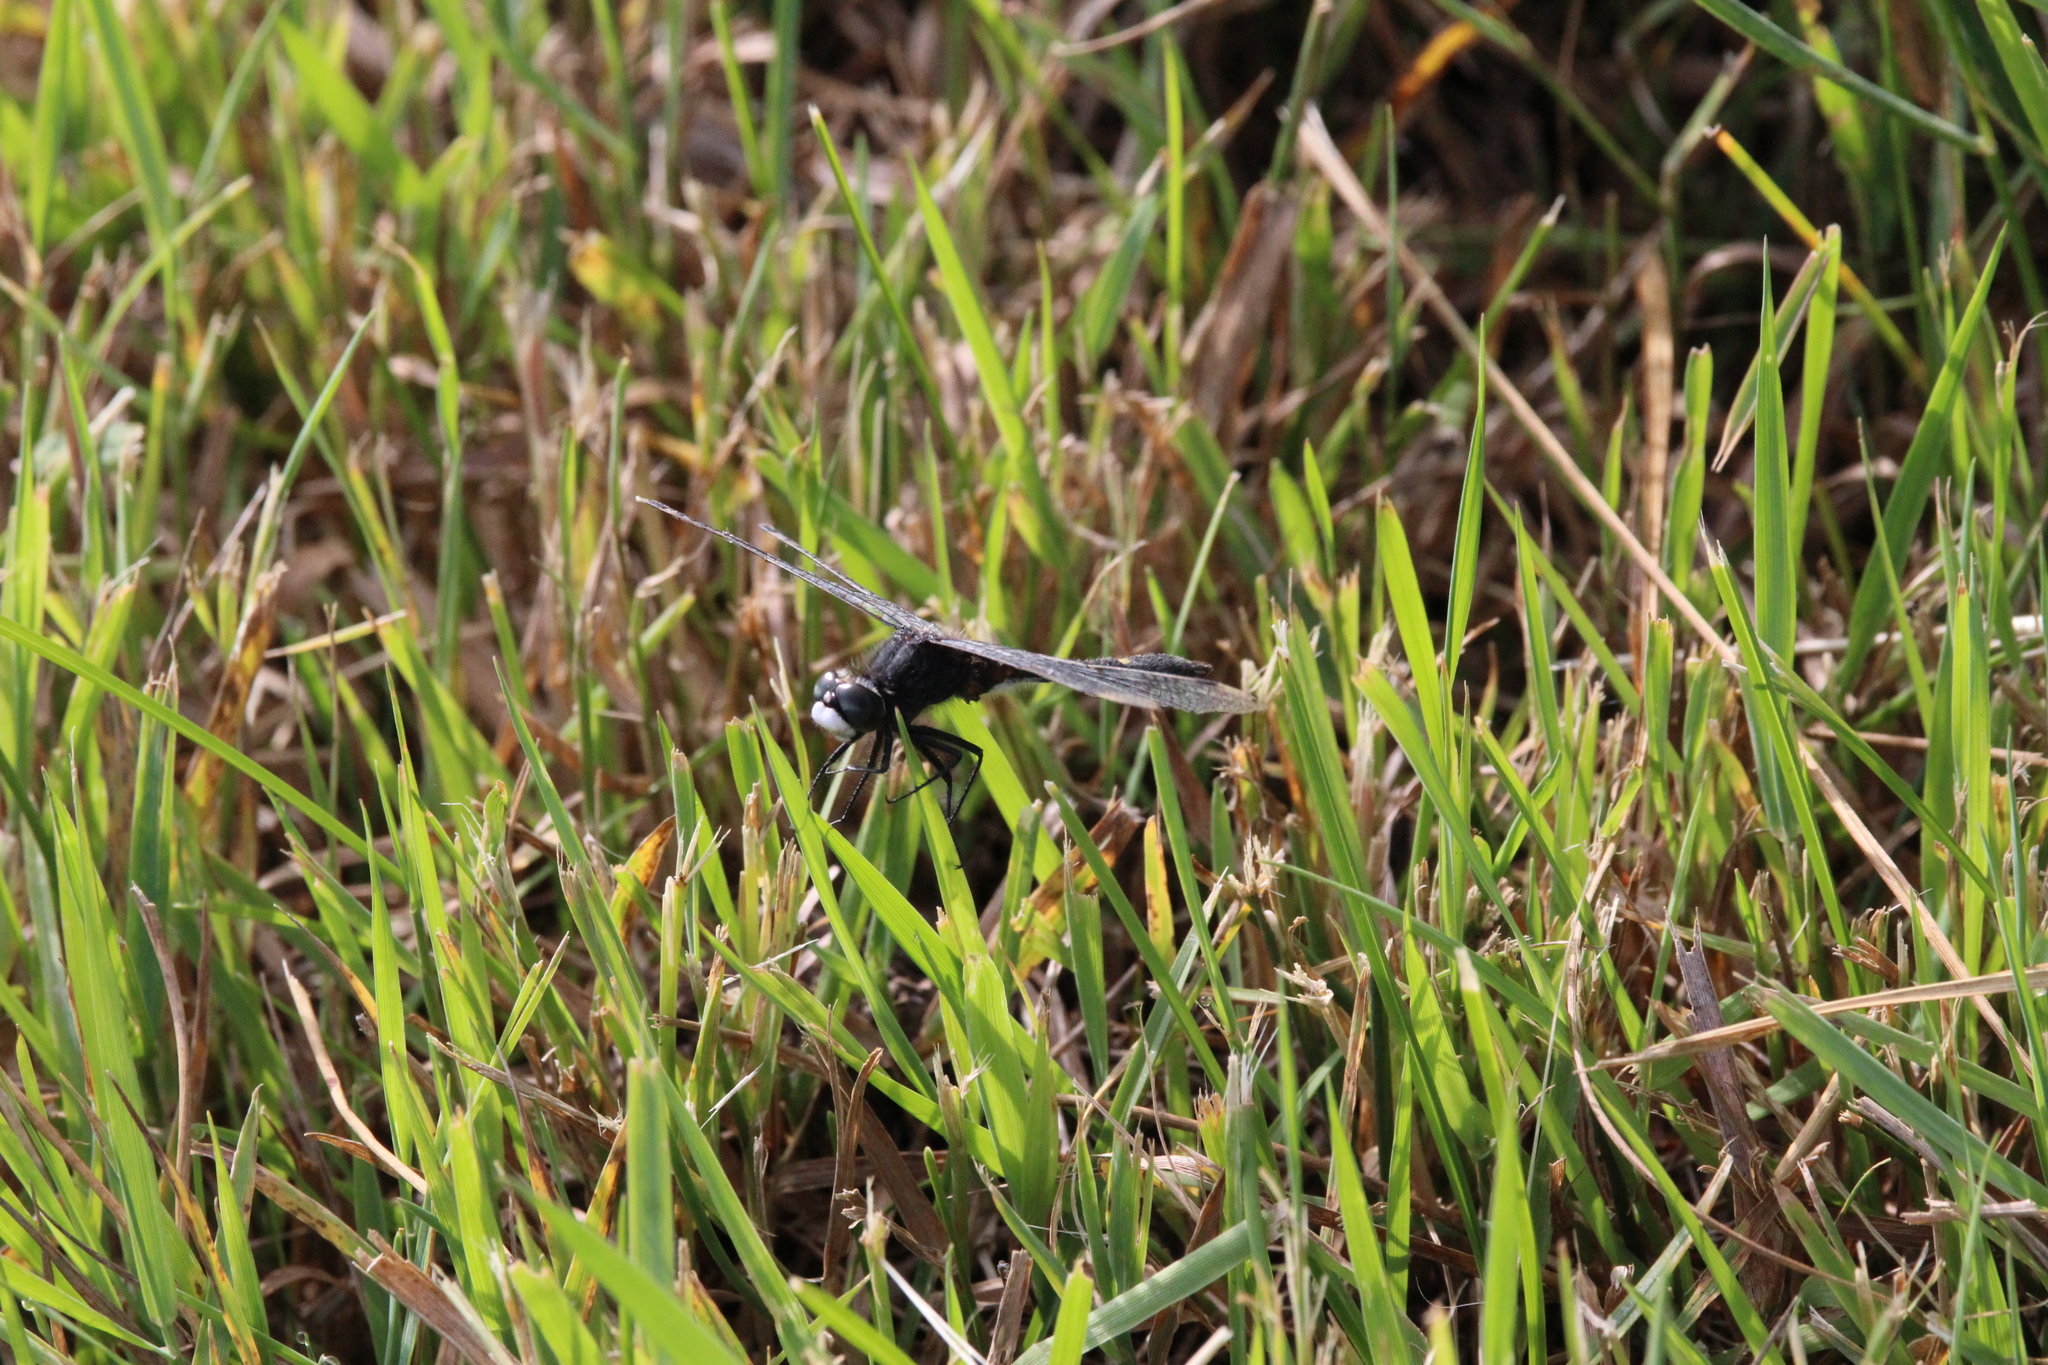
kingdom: Animalia
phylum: Arthropoda
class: Insecta
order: Odonata
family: Libellulidae
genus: Leucorrhinia
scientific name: Leucorrhinia intacta
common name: Dot-tailed whiteface
